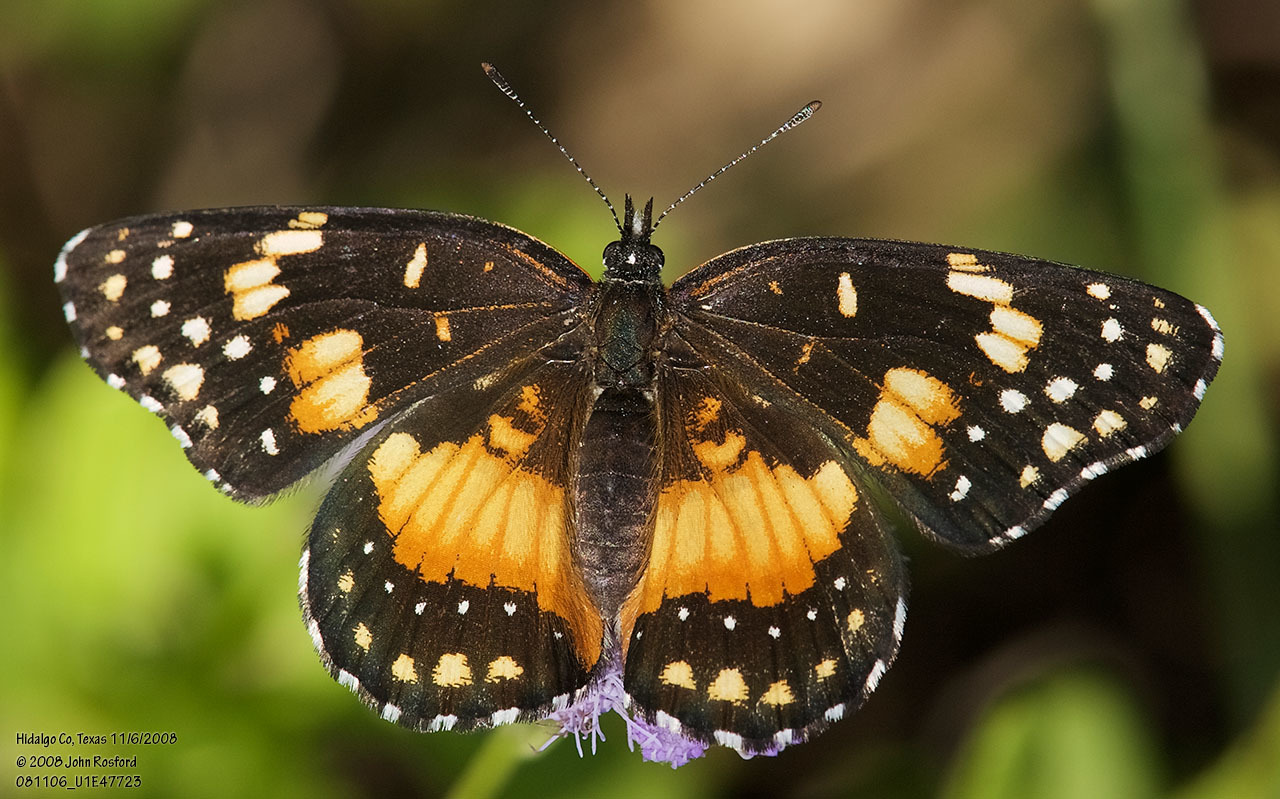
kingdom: Animalia
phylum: Arthropoda
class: Insecta
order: Lepidoptera
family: Nymphalidae
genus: Chlosyne
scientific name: Chlosyne lacinia
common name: Bordered patch
